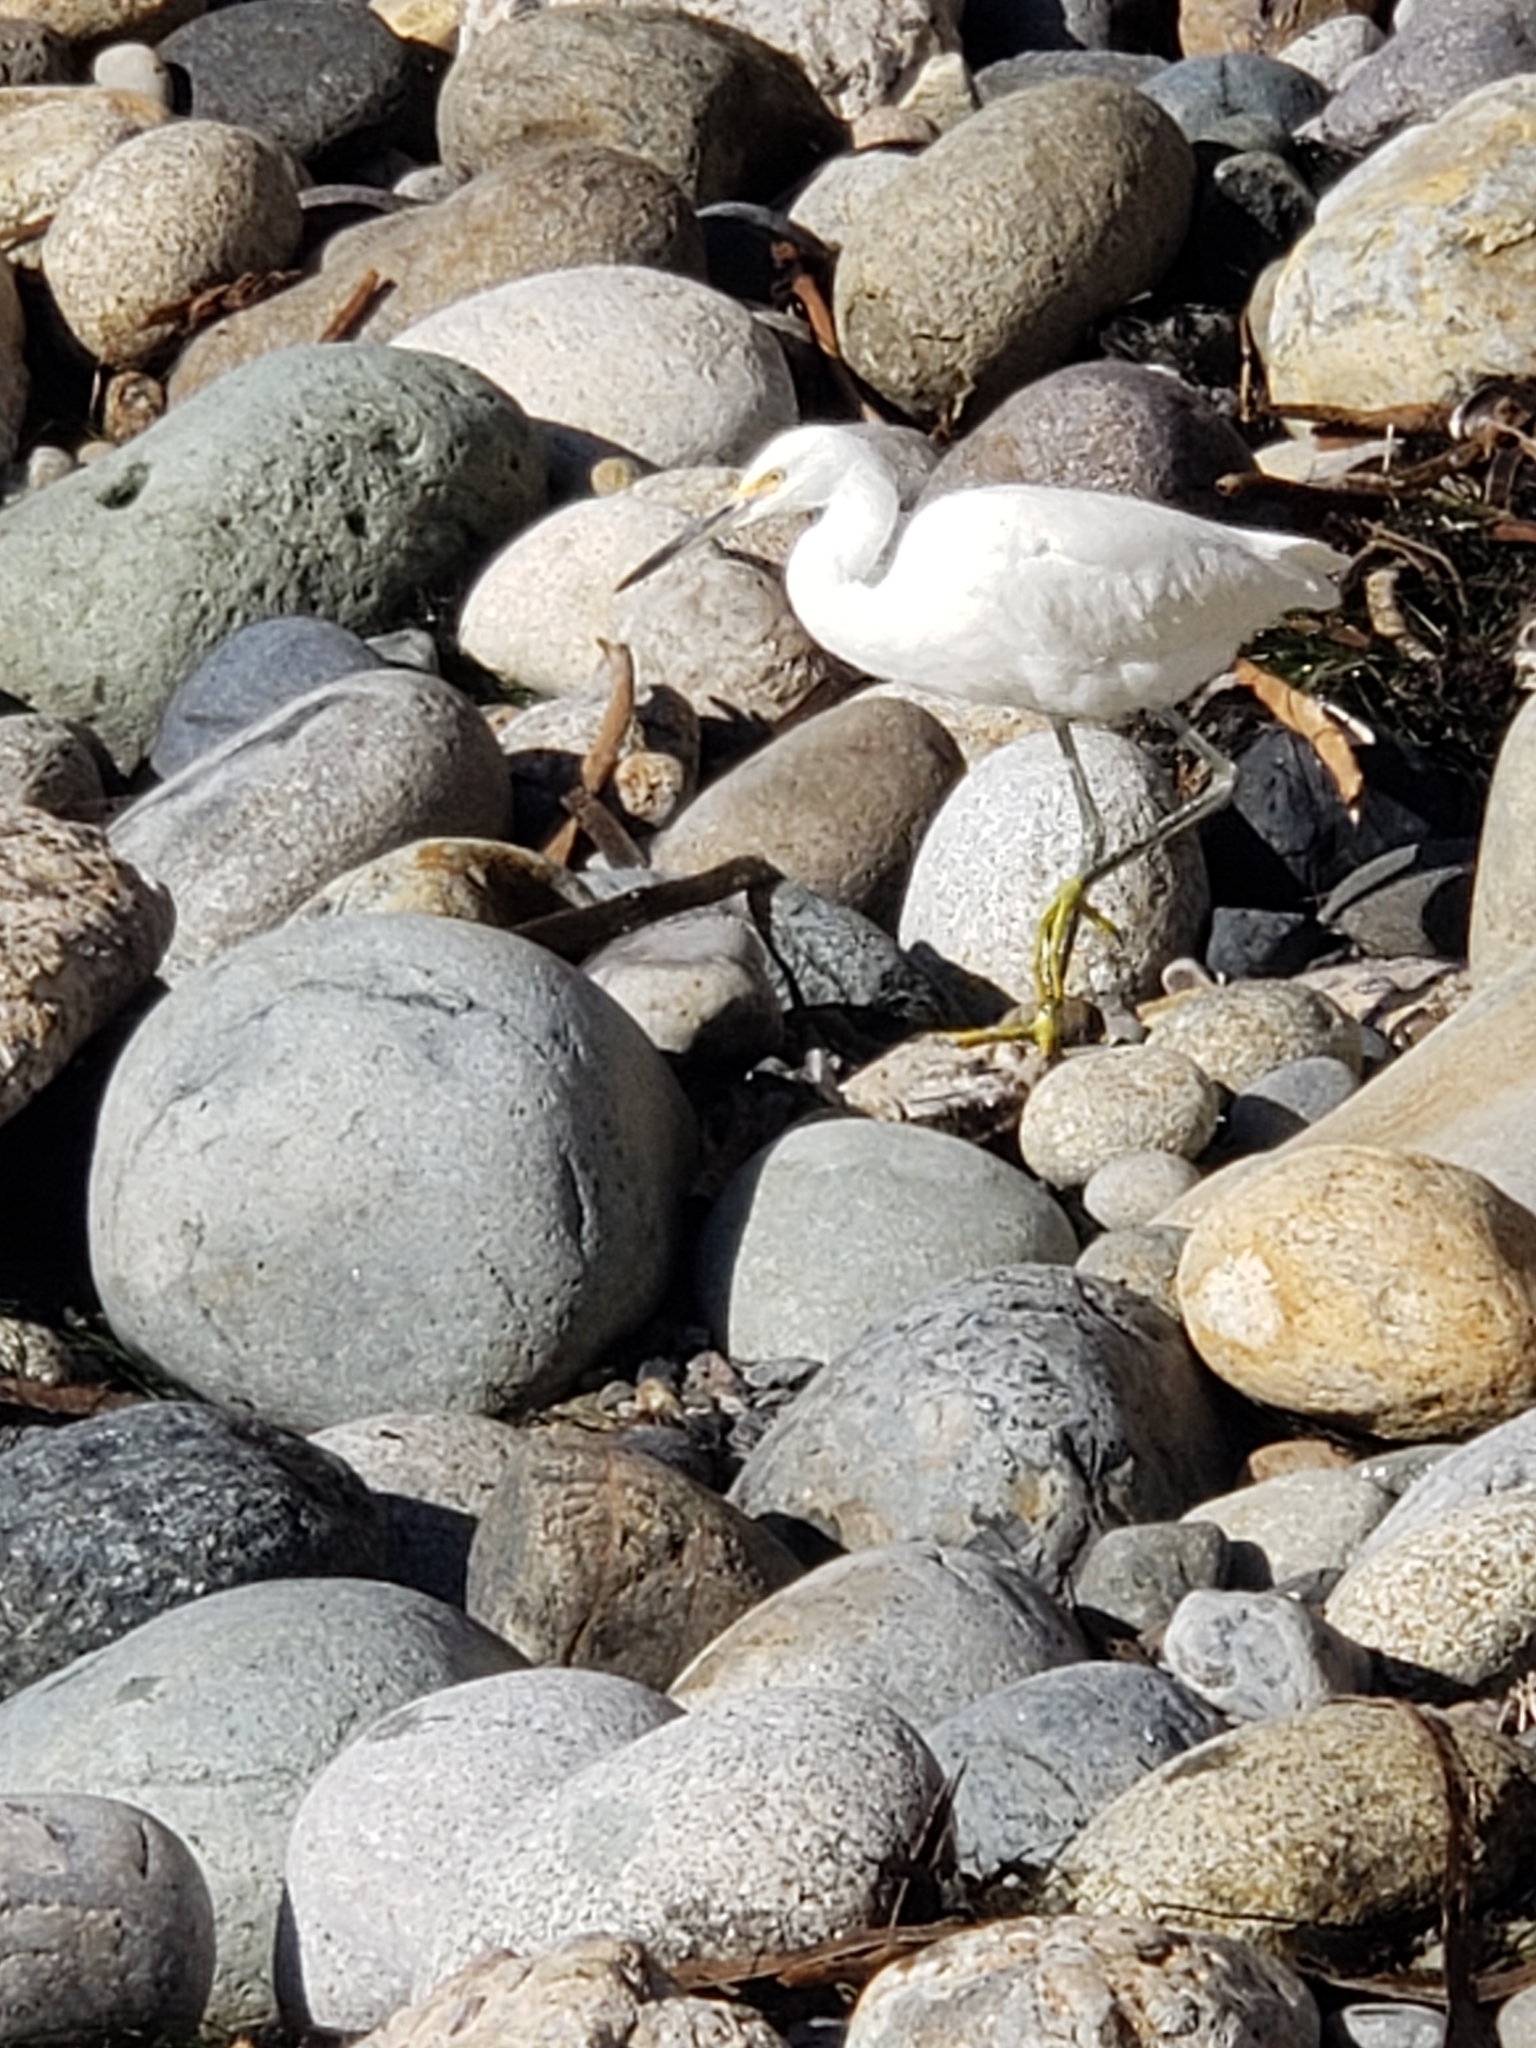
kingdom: Animalia
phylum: Chordata
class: Aves
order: Pelecaniformes
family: Ardeidae
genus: Egretta
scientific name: Egretta thula
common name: Snowy egret
